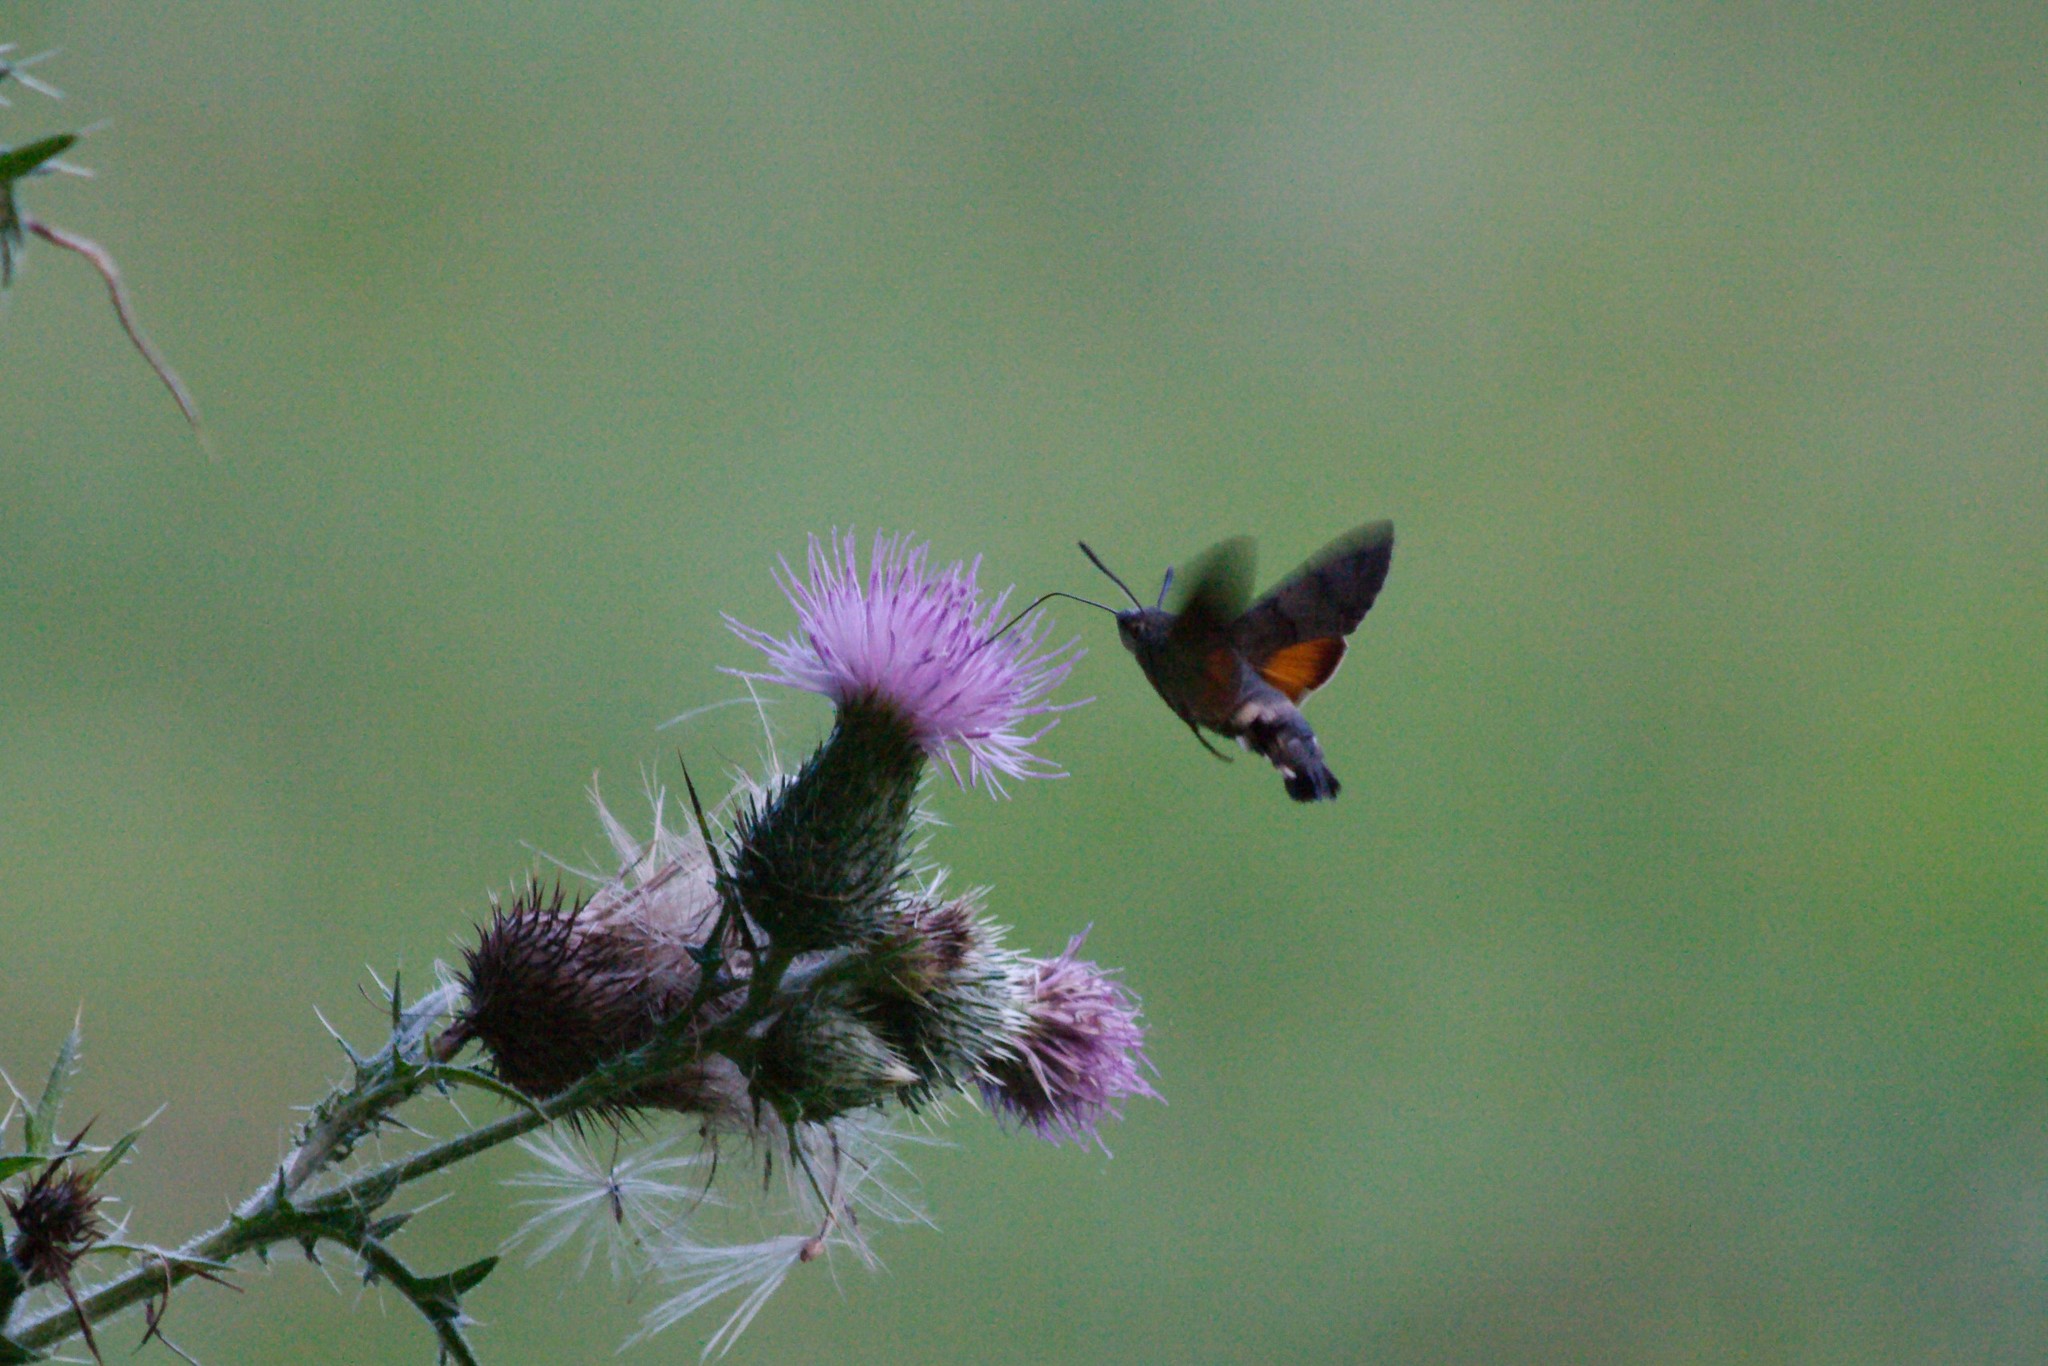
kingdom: Animalia
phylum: Arthropoda
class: Insecta
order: Lepidoptera
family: Sphingidae
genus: Macroglossum
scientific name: Macroglossum stellatarum
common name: Humming-bird hawk-moth
